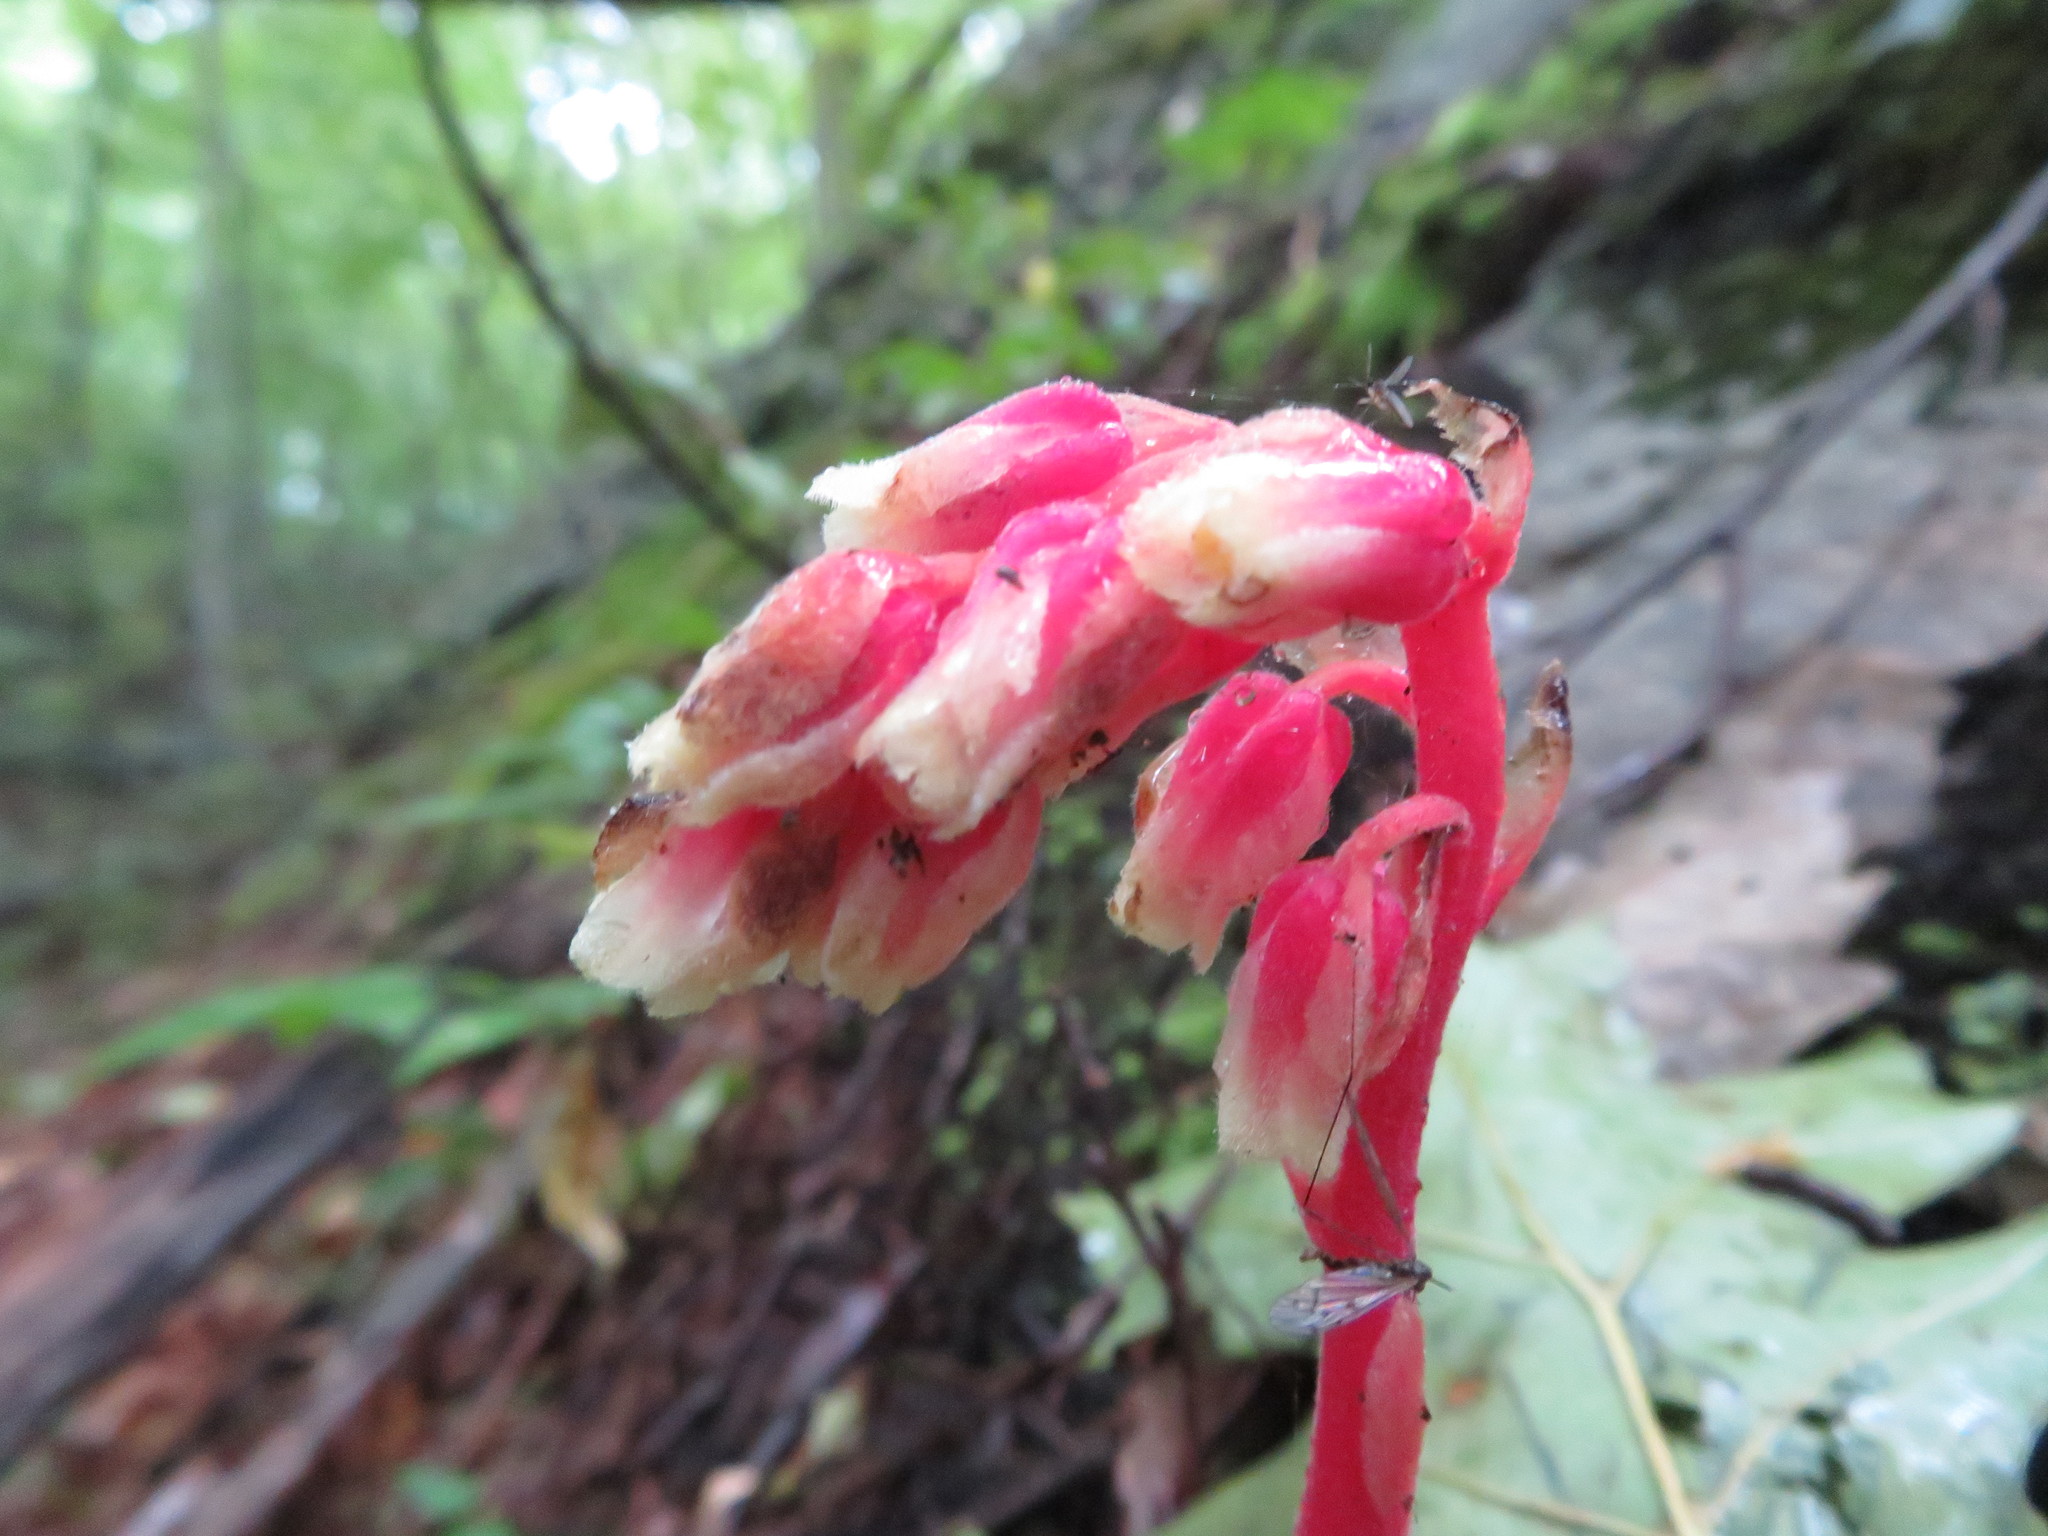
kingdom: Plantae
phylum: Tracheophyta
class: Magnoliopsida
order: Ericales
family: Ericaceae
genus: Hypopitys
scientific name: Hypopitys monotropa
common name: Yellow bird's-nest
